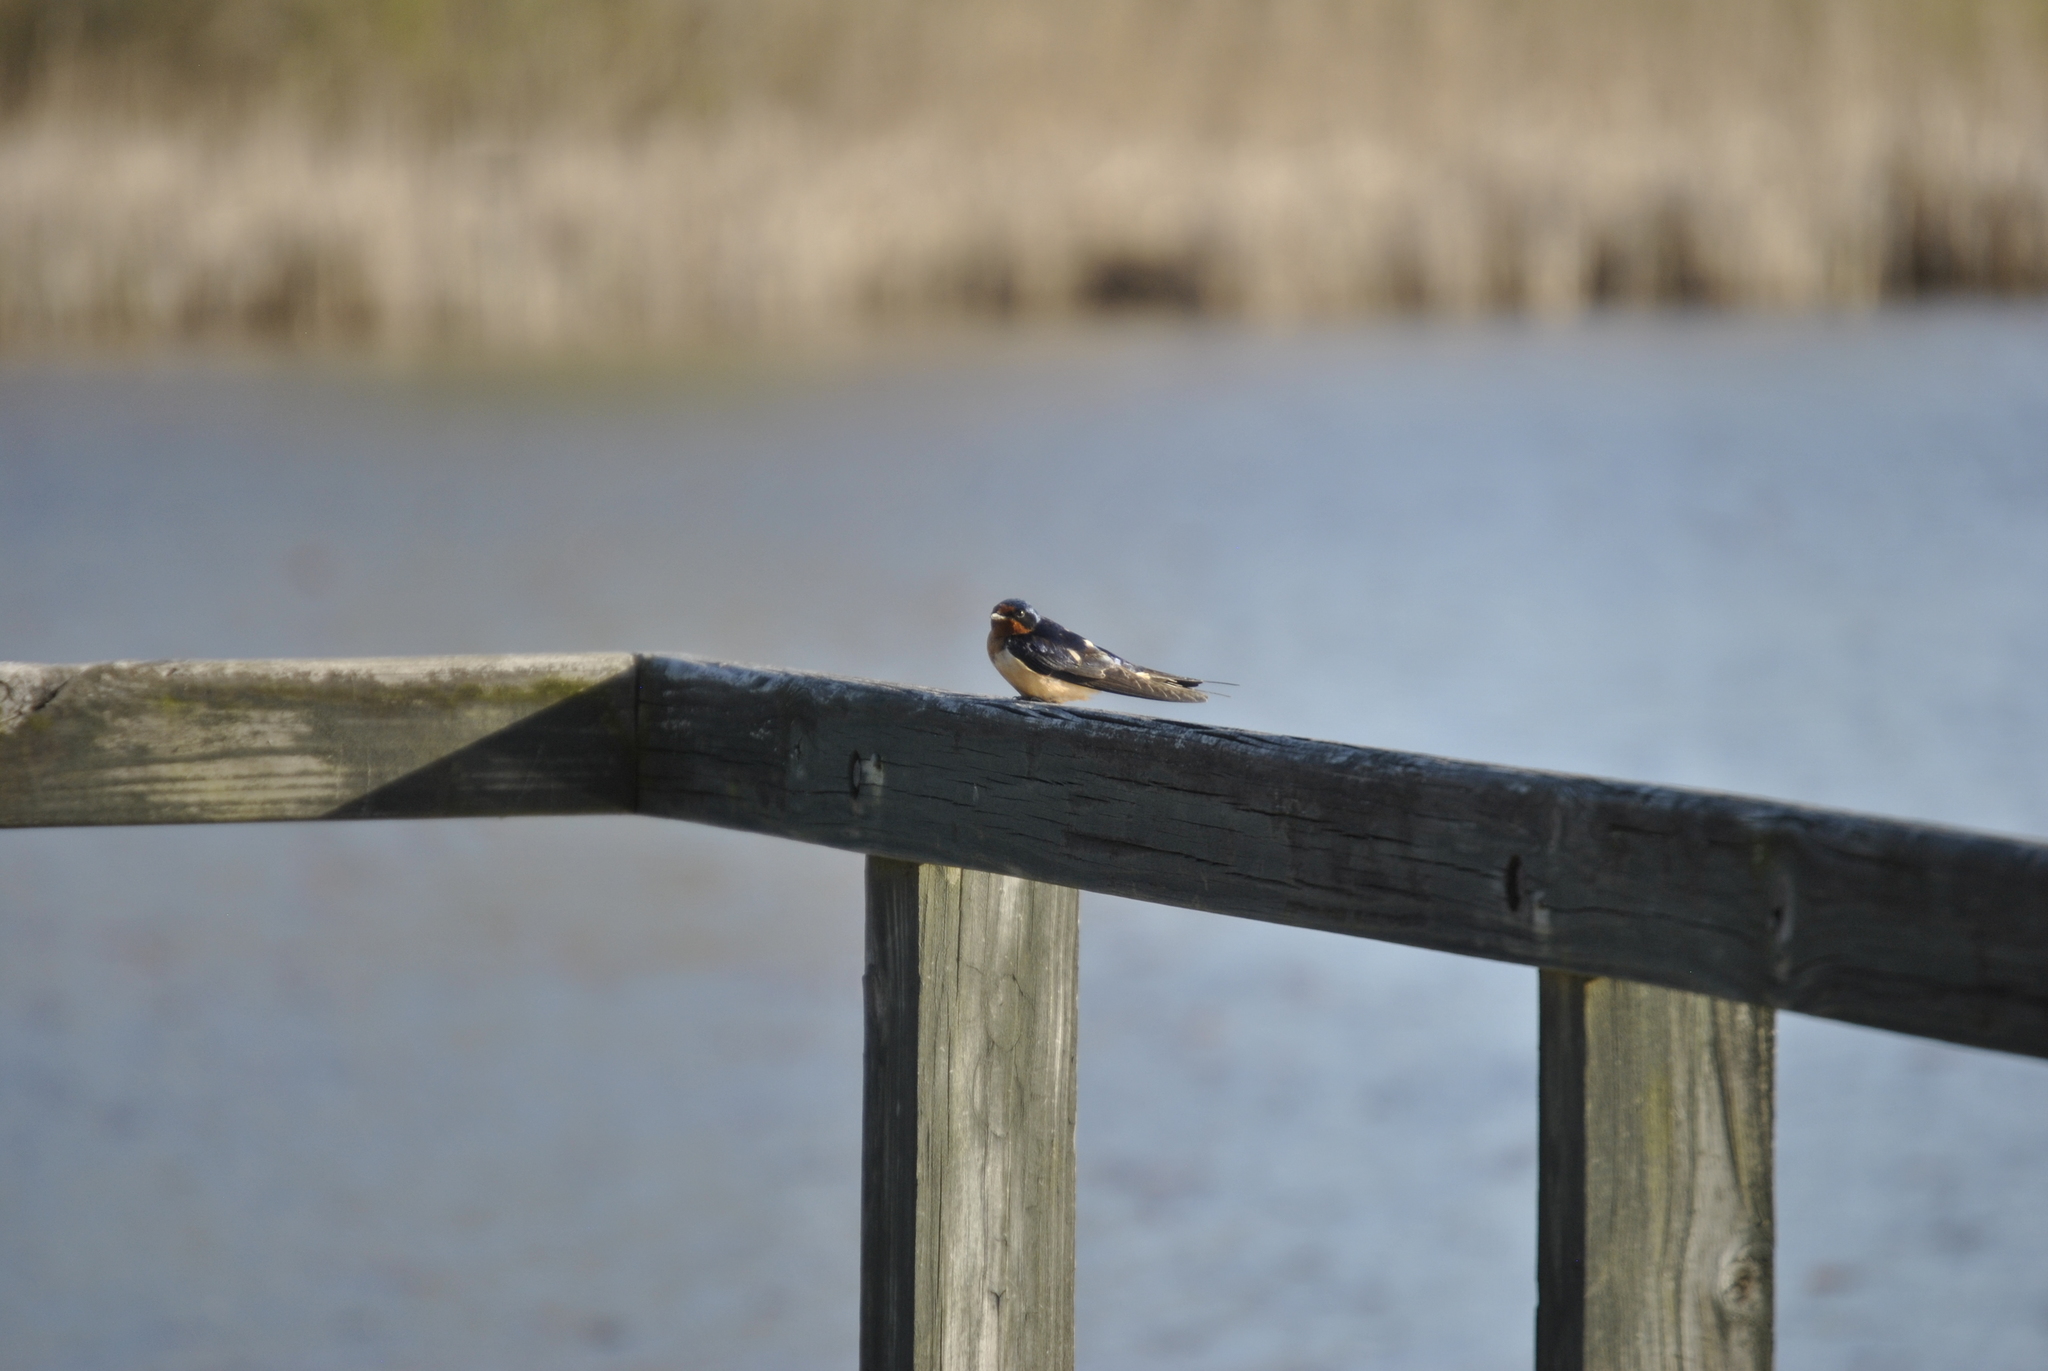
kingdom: Animalia
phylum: Chordata
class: Aves
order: Passeriformes
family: Hirundinidae
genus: Hirundo
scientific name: Hirundo rustica
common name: Barn swallow
